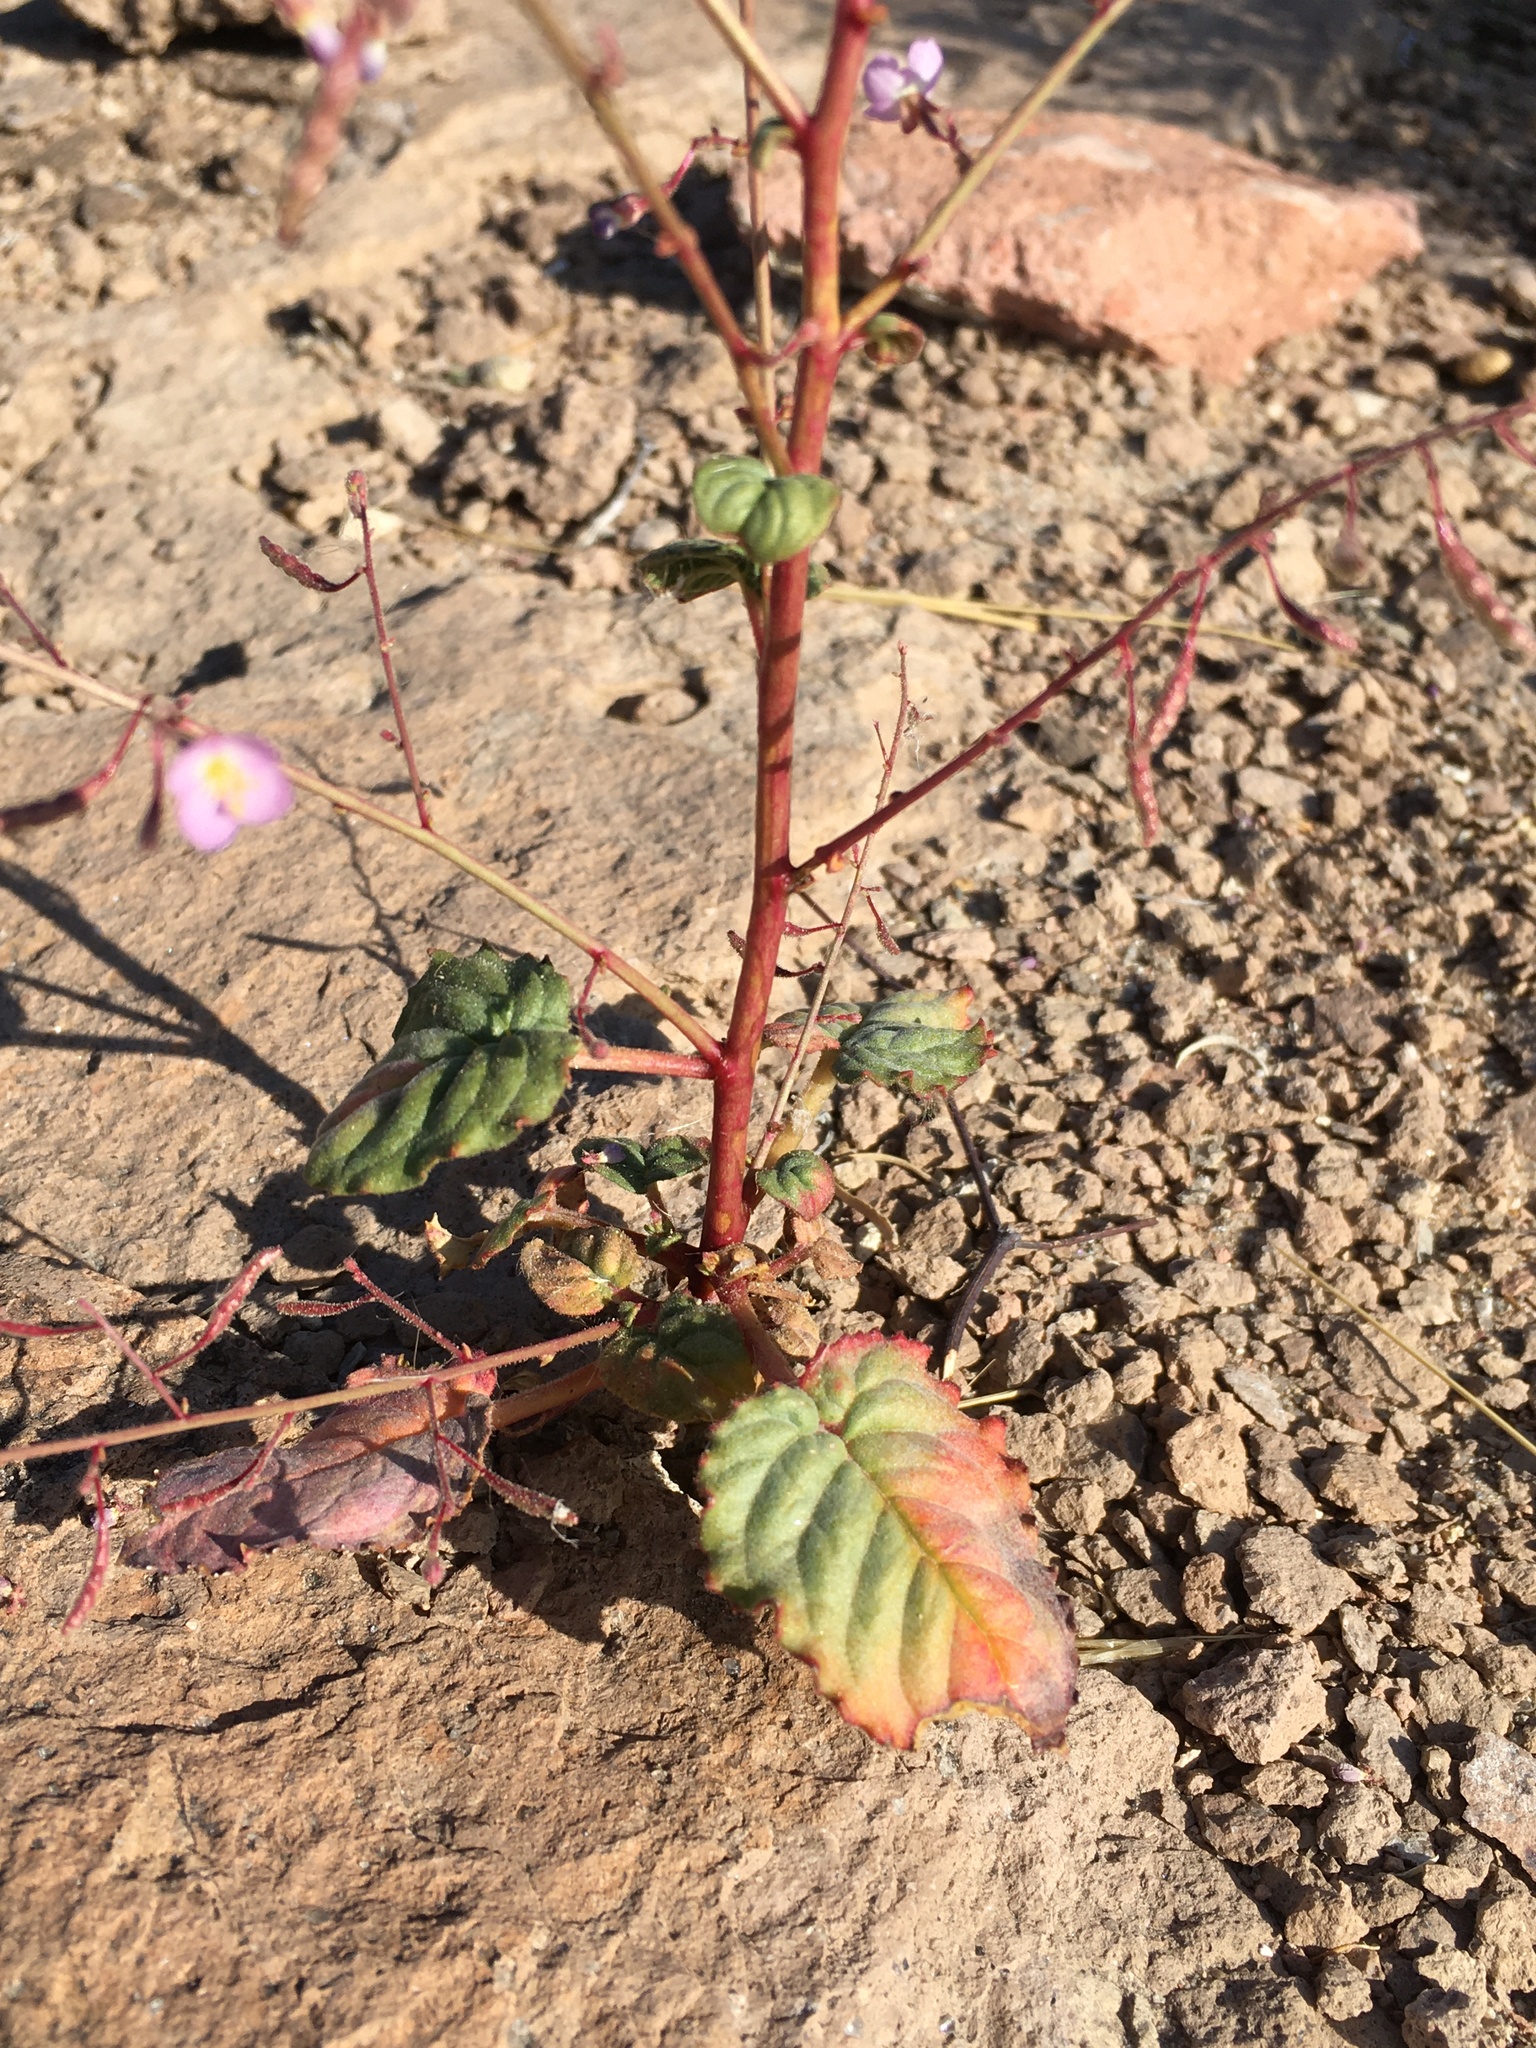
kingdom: Plantae
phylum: Tracheophyta
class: Magnoliopsida
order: Myrtales
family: Onagraceae
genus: Chylismia
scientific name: Chylismia heterochroma
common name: Shockley's evening primrose
